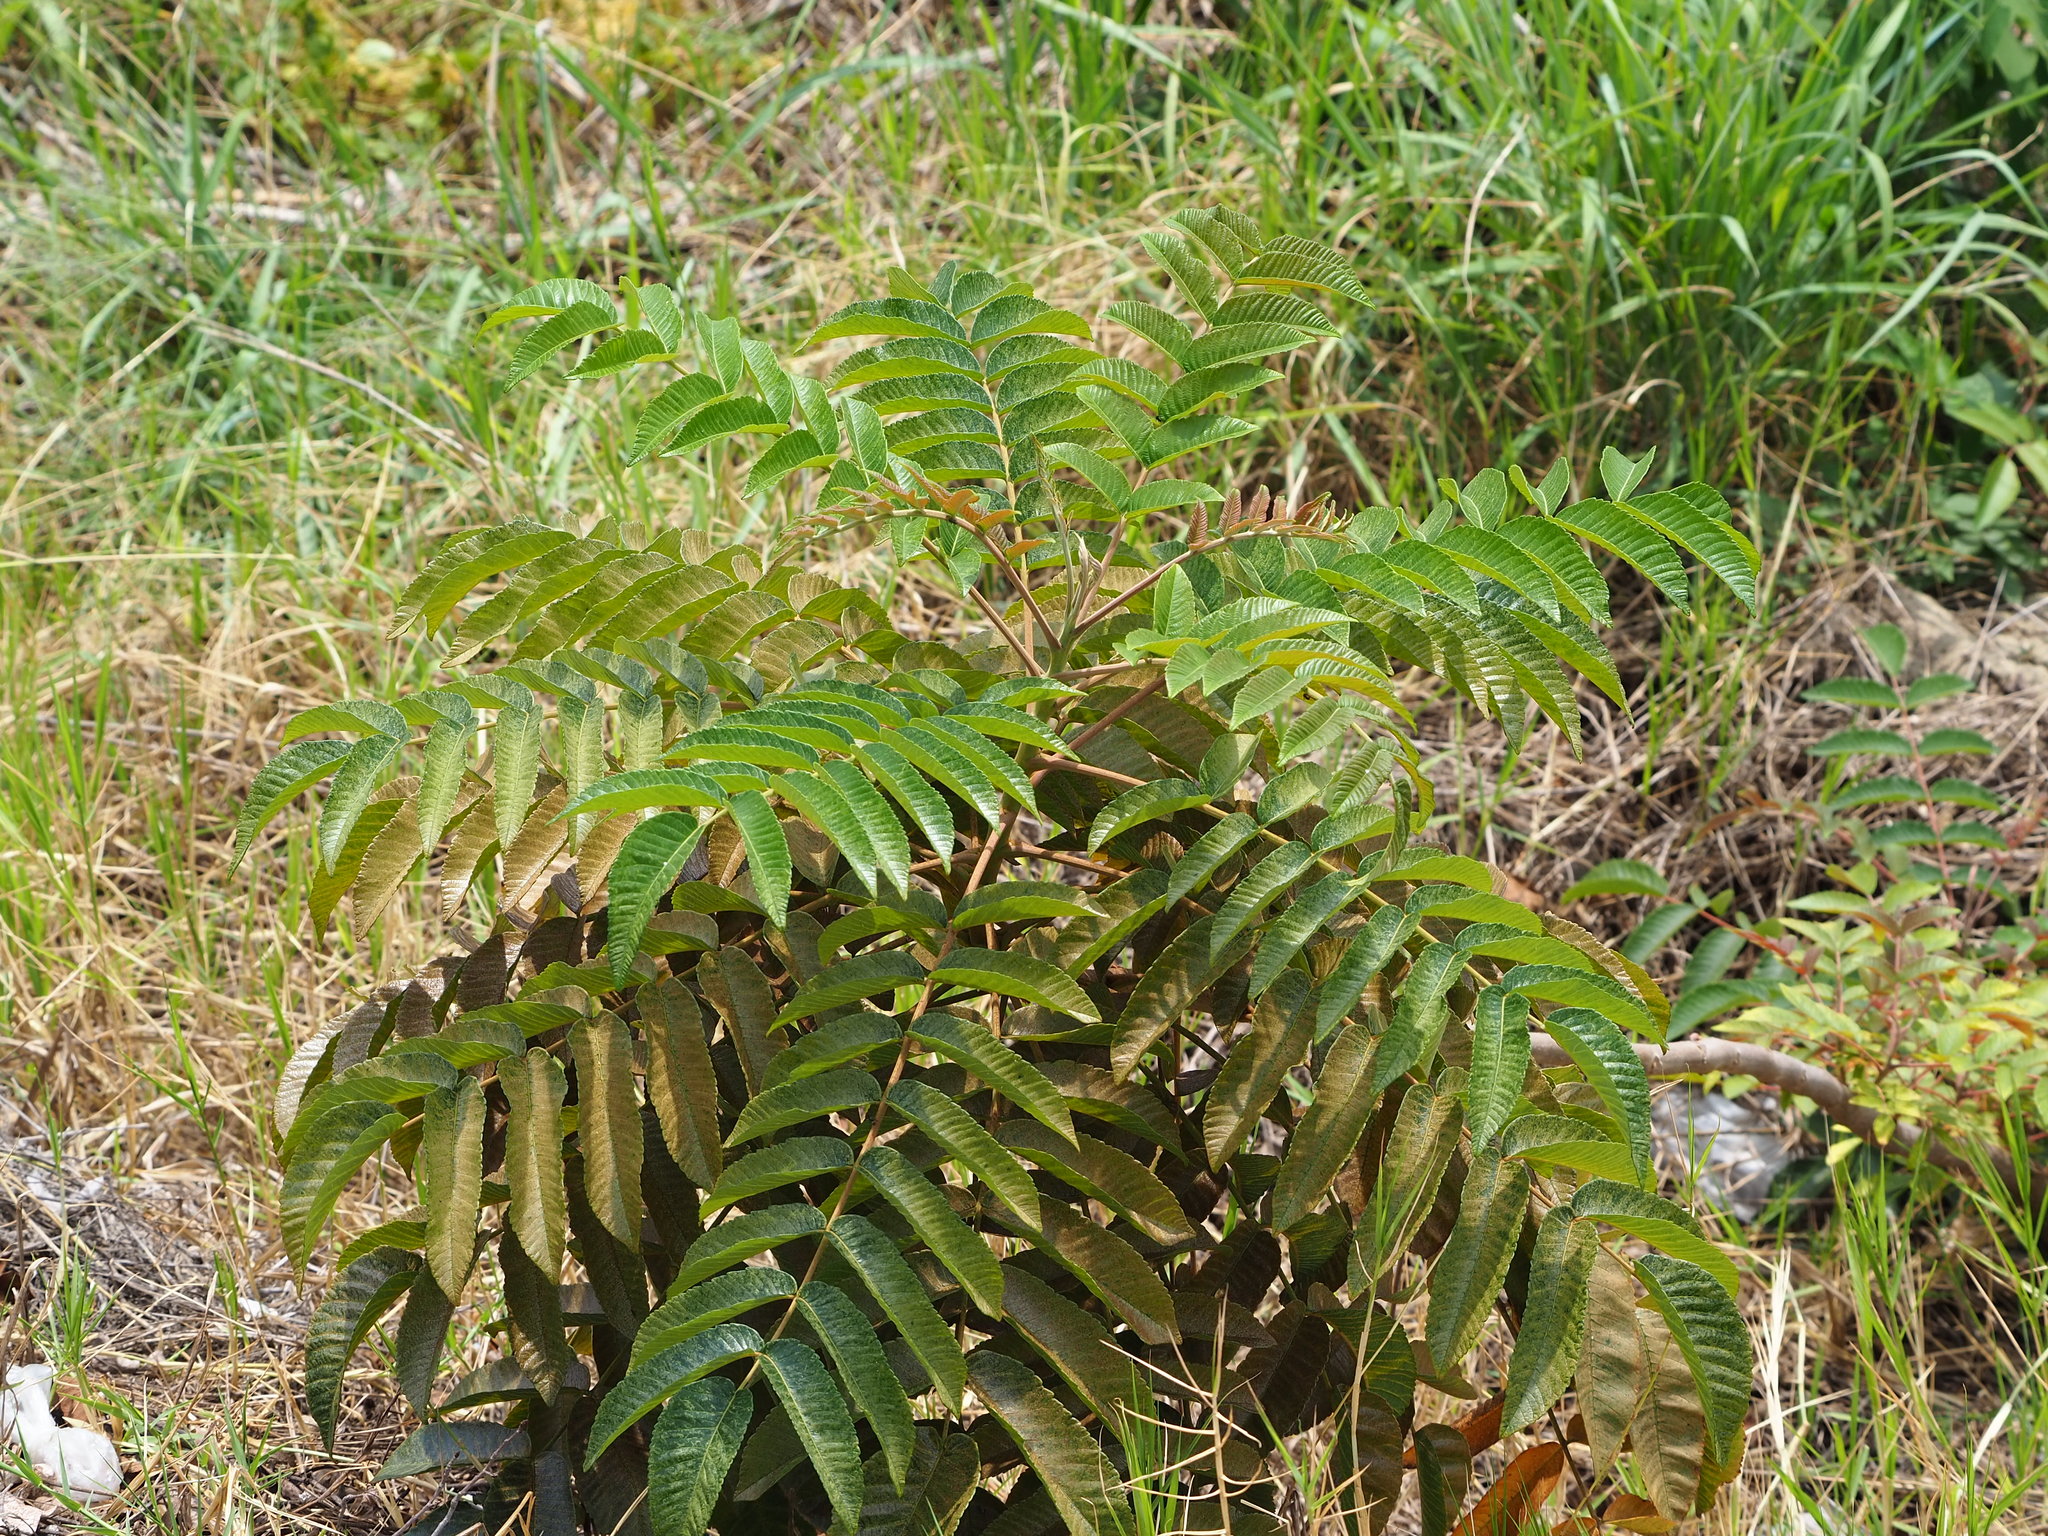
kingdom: Plantae
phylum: Tracheophyta
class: Magnoliopsida
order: Sapindales
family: Anacardiaceae
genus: Rhus
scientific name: Rhus chinensis
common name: Chinese gall
